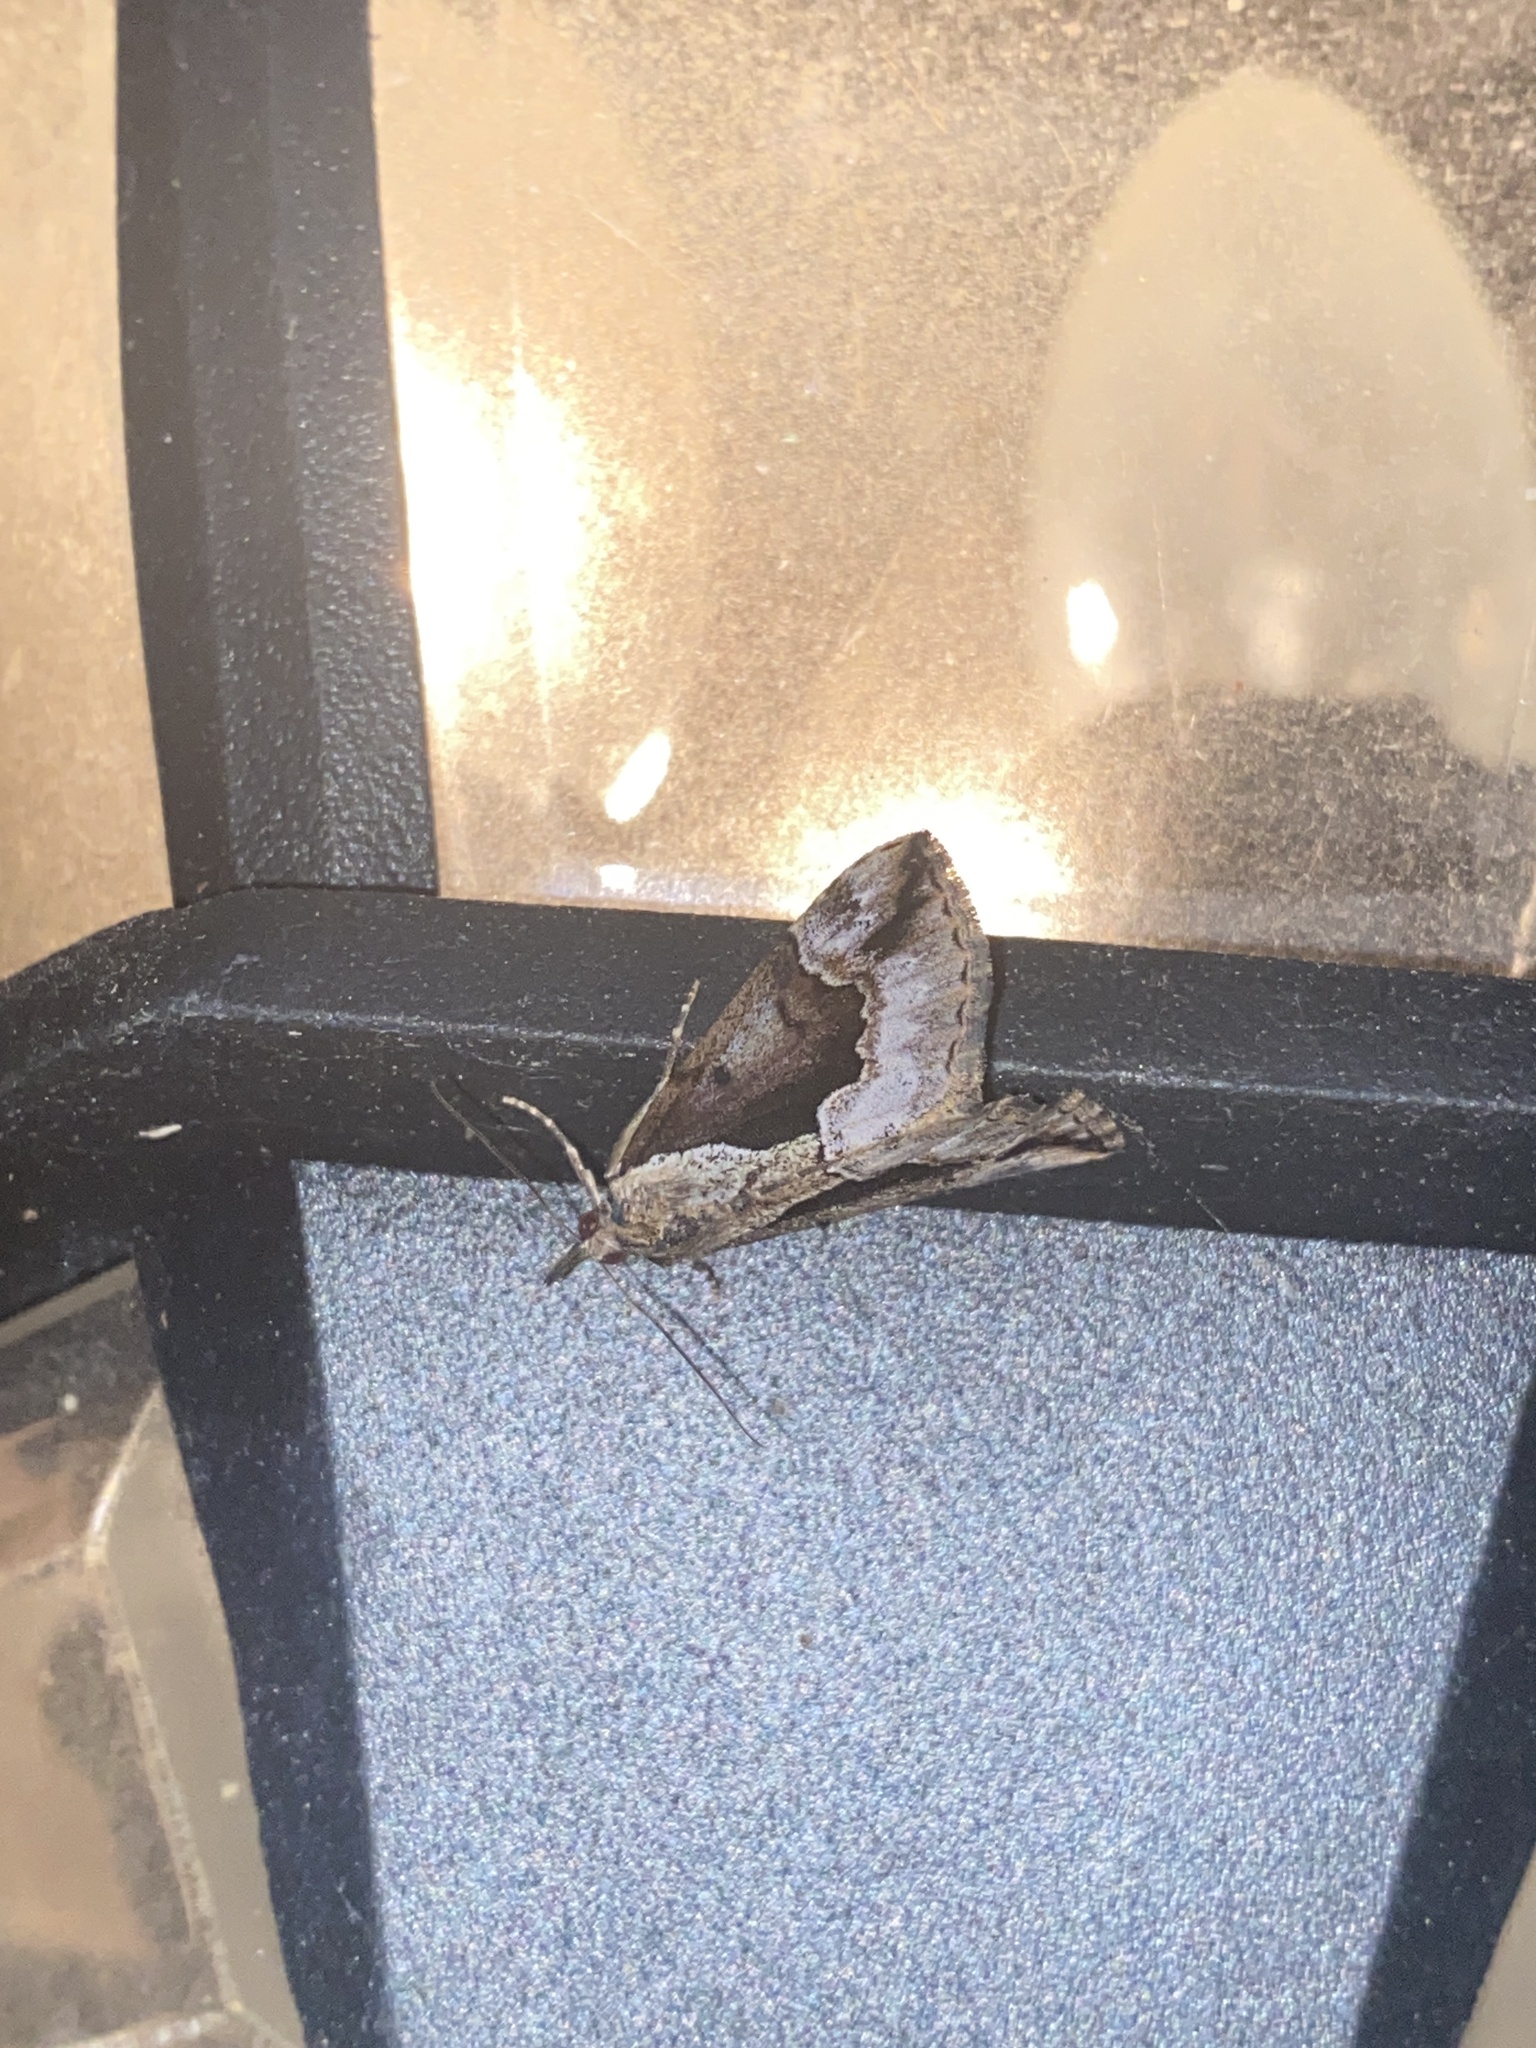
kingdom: Animalia
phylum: Arthropoda
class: Insecta
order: Lepidoptera
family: Erebidae
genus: Hypena
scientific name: Hypena baltimoralis
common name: Baltimore snout
